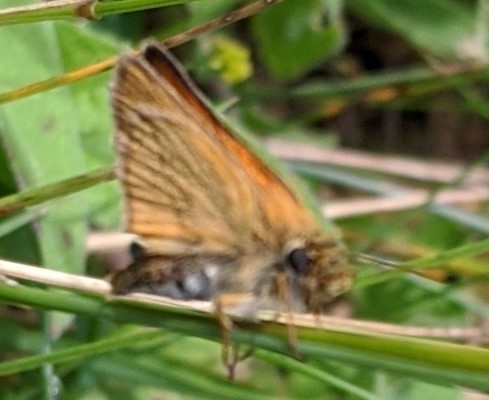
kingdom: Animalia
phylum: Arthropoda
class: Insecta
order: Lepidoptera
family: Hesperiidae
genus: Thymelicus
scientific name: Thymelicus lineola
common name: Essex skipper
